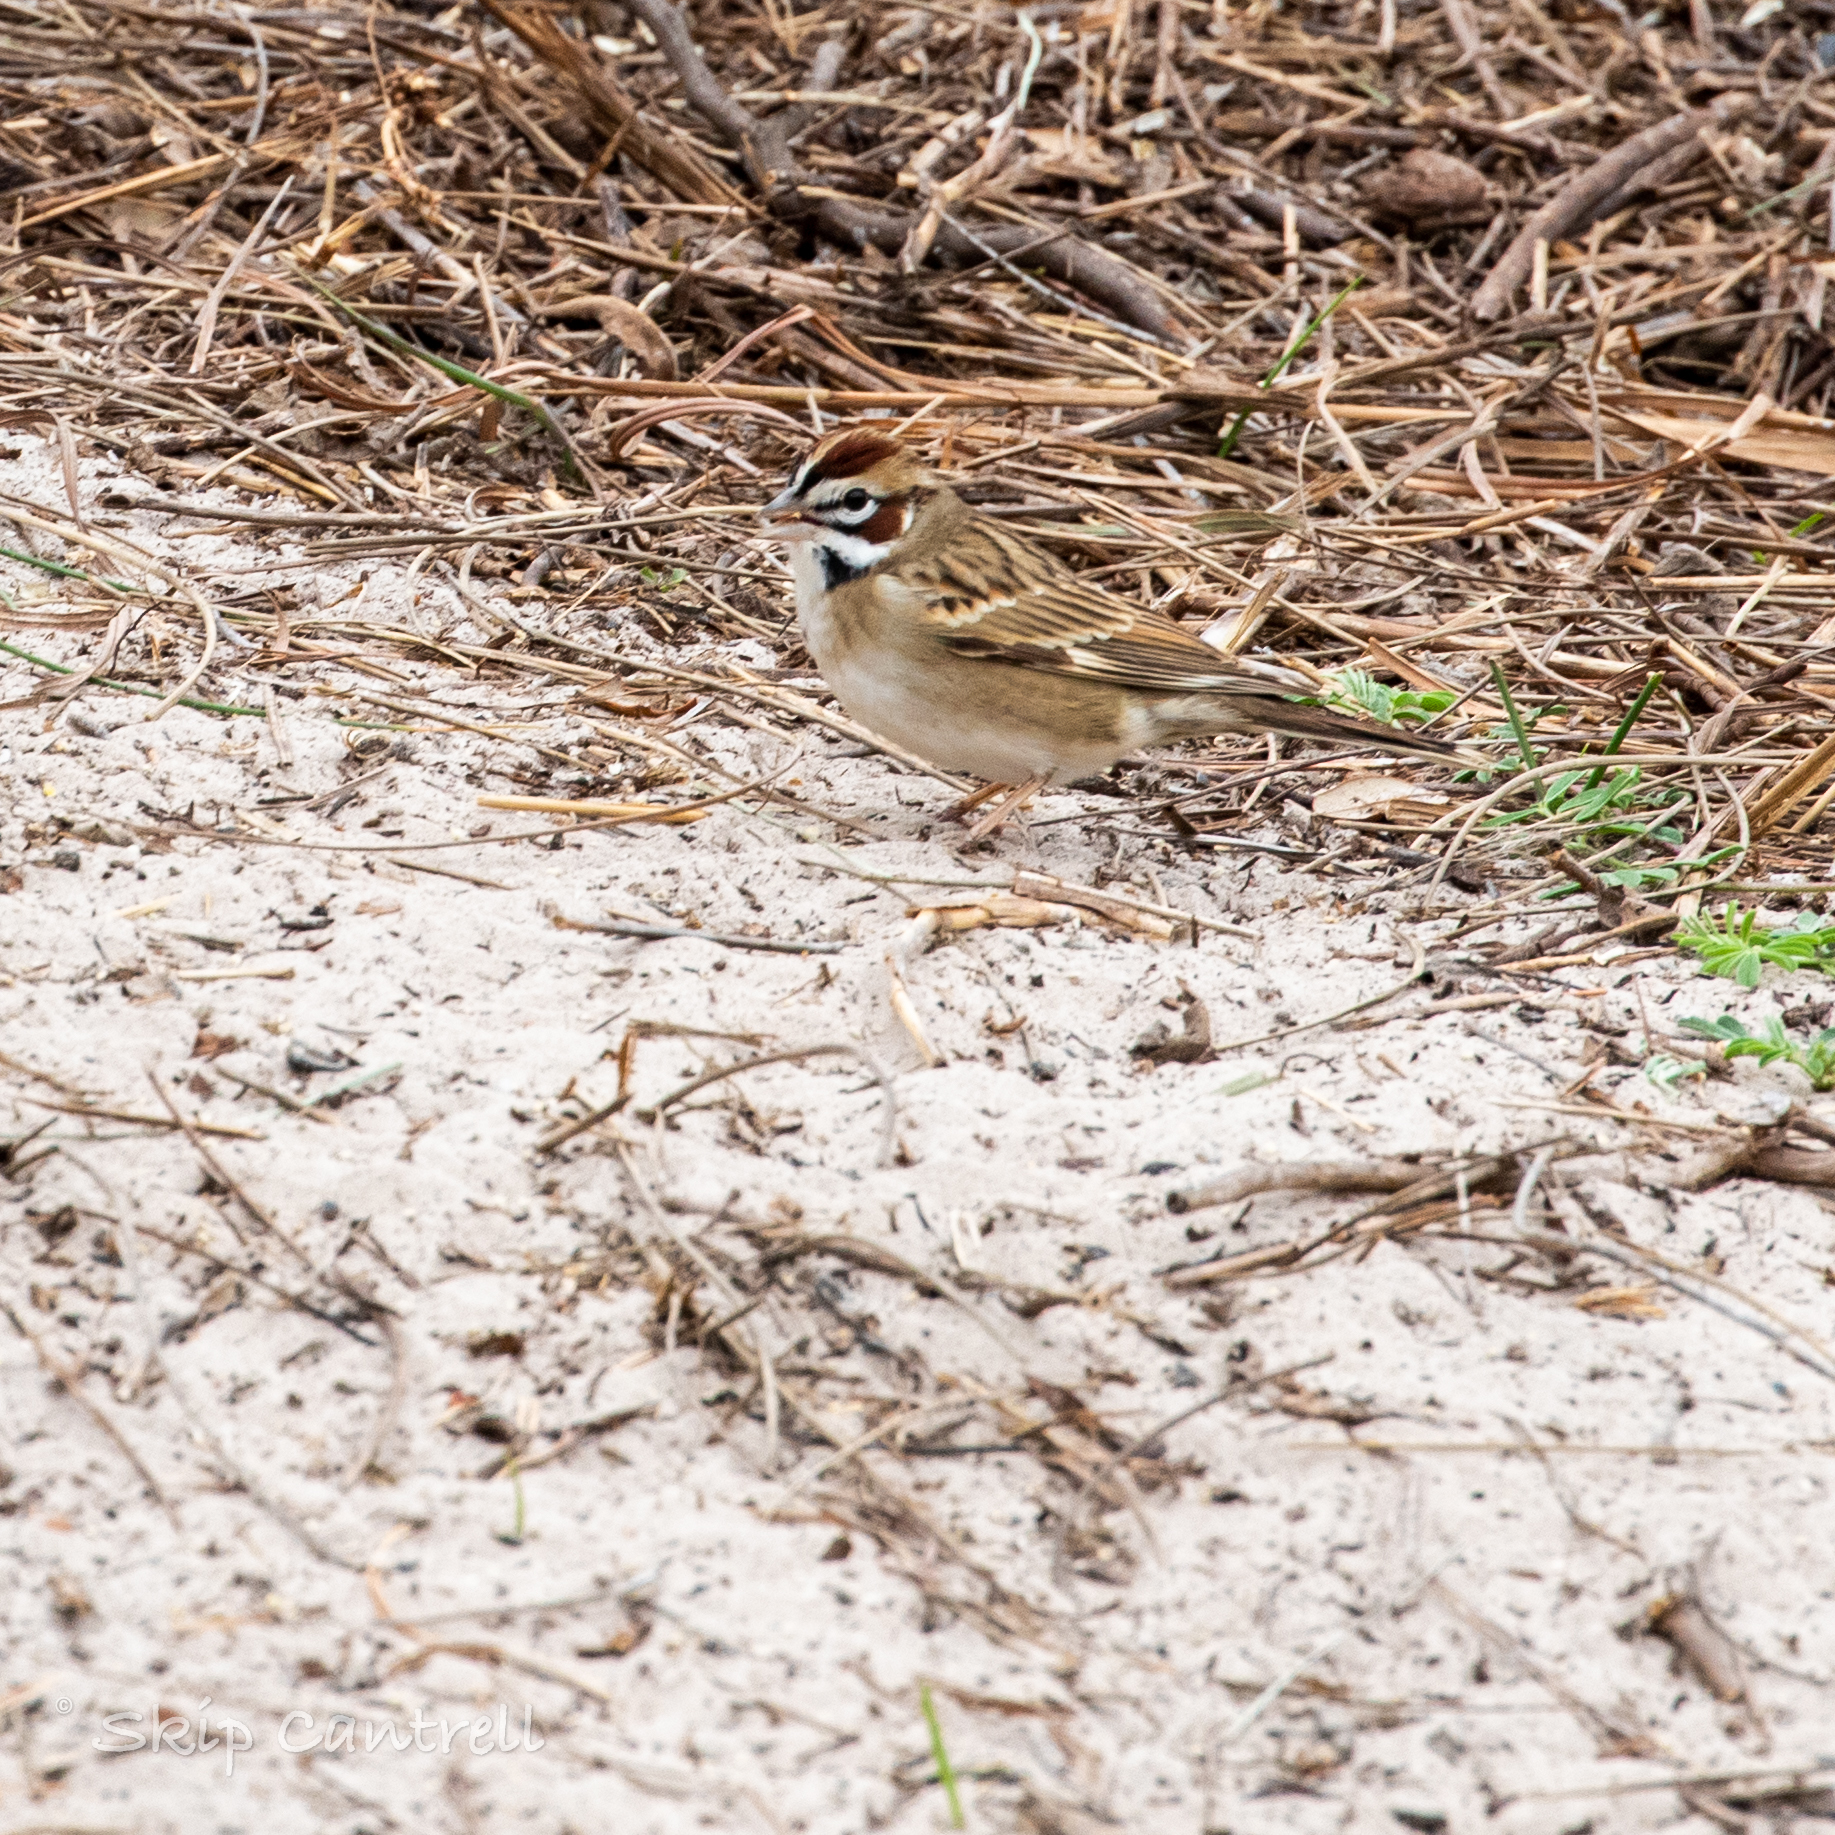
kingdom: Animalia
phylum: Chordata
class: Aves
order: Passeriformes
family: Passerellidae
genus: Chondestes
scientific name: Chondestes grammacus
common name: Lark sparrow
